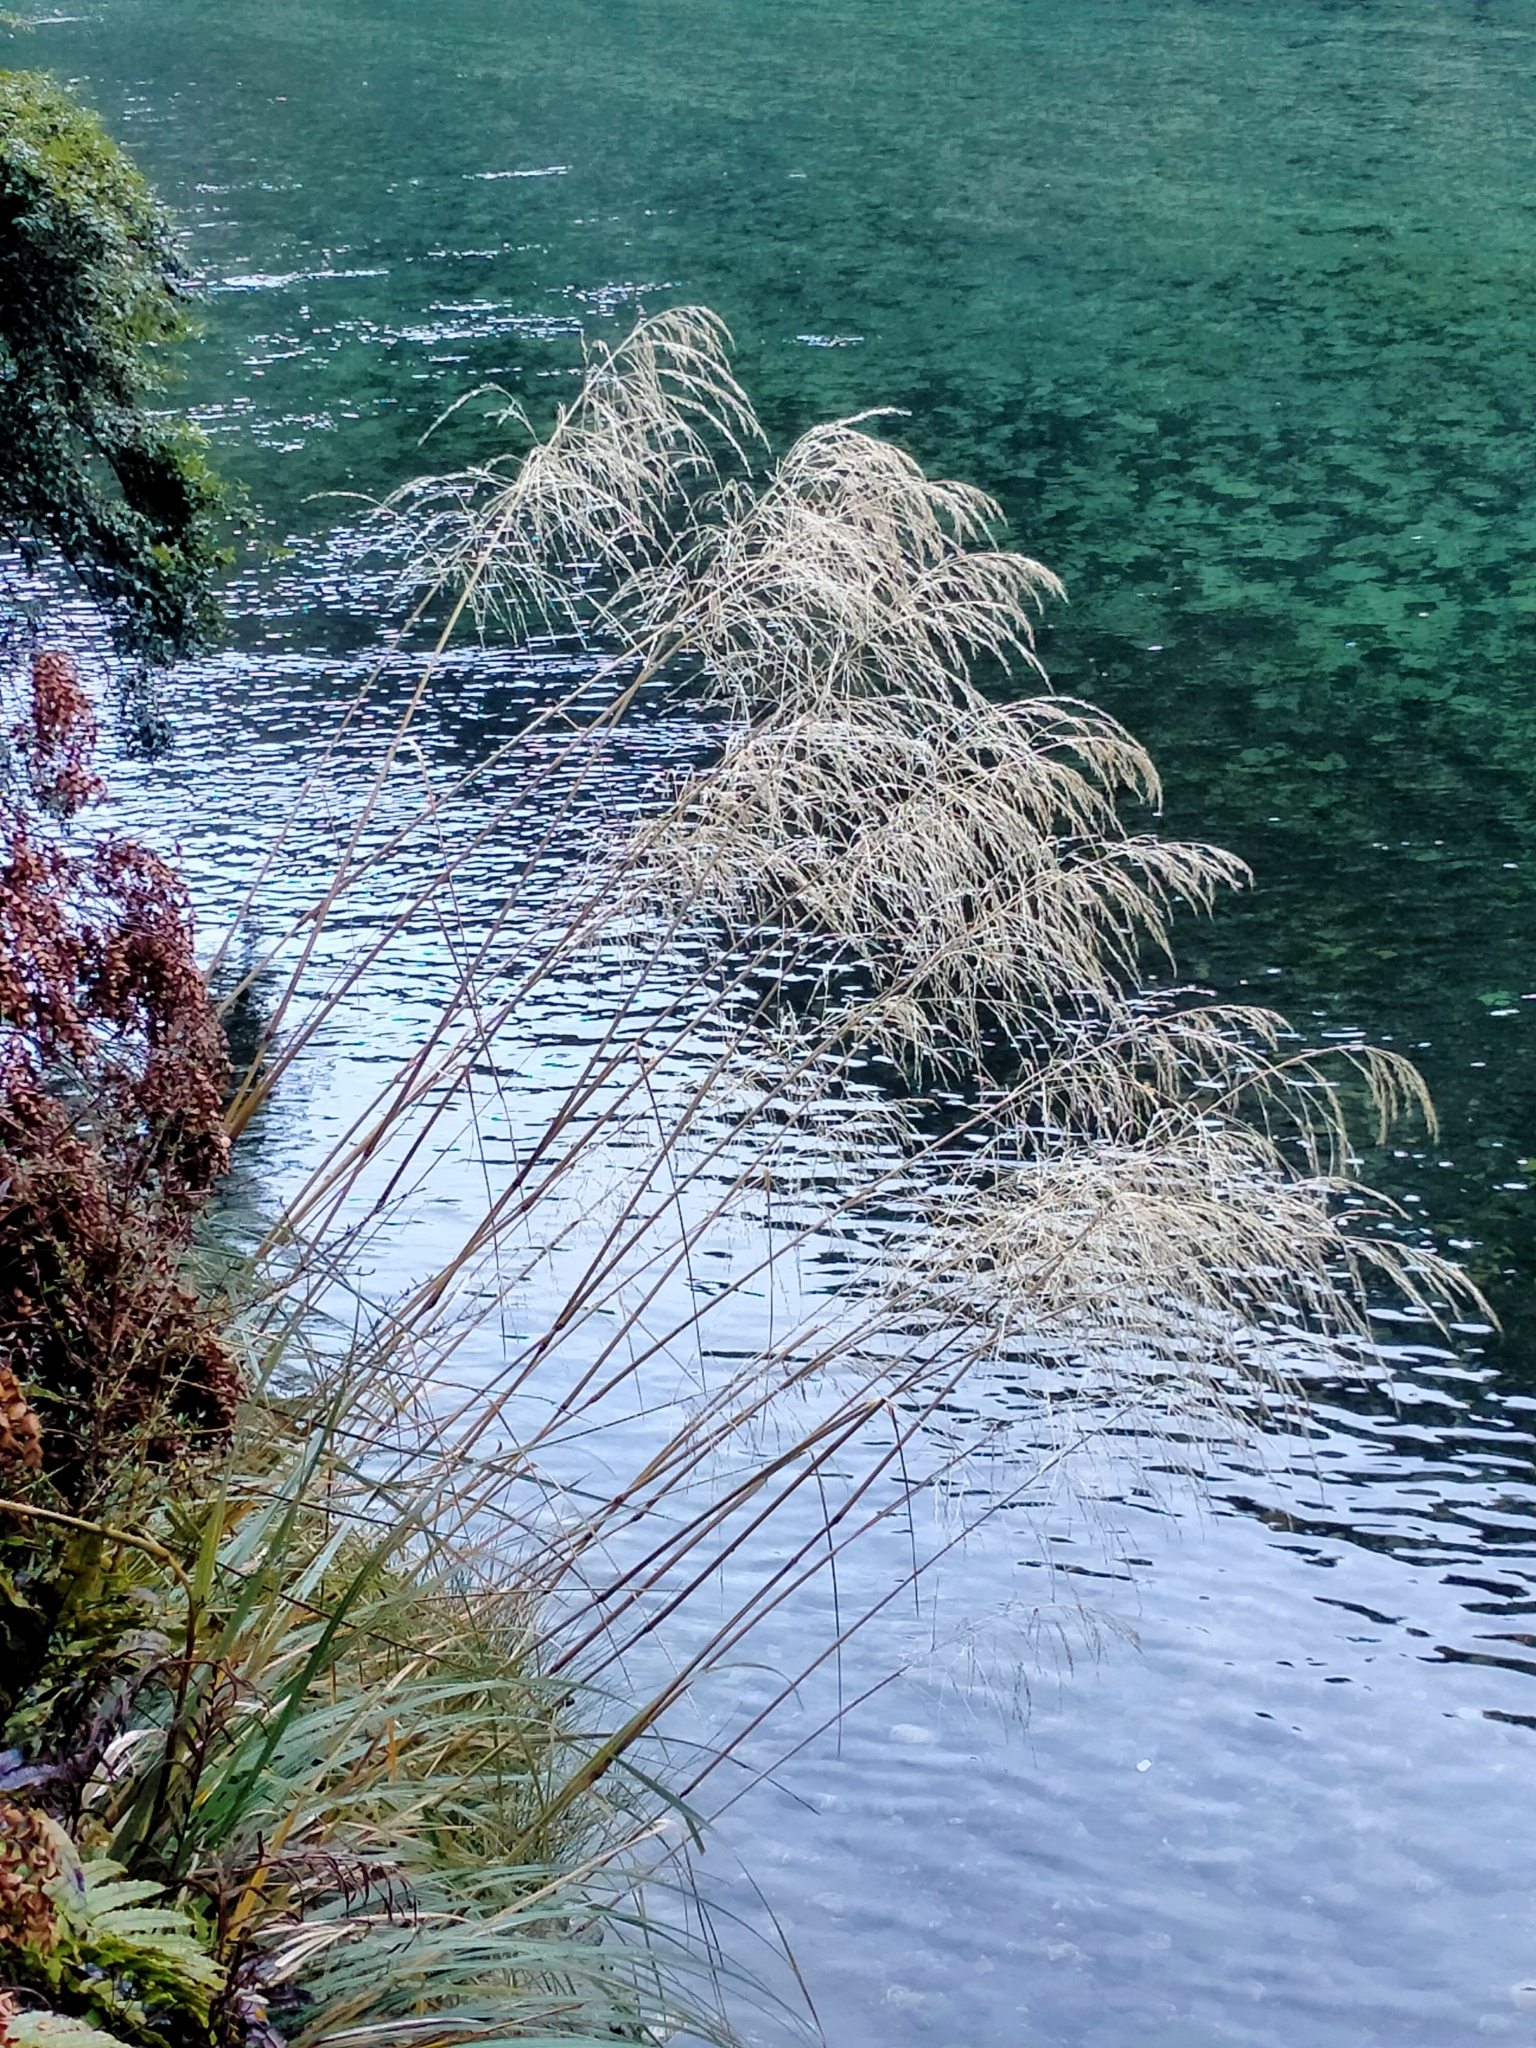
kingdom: Plantae
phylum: Tracheophyta
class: Liliopsida
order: Poales
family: Poaceae
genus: Chionochloa
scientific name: Chionochloa conspicua
